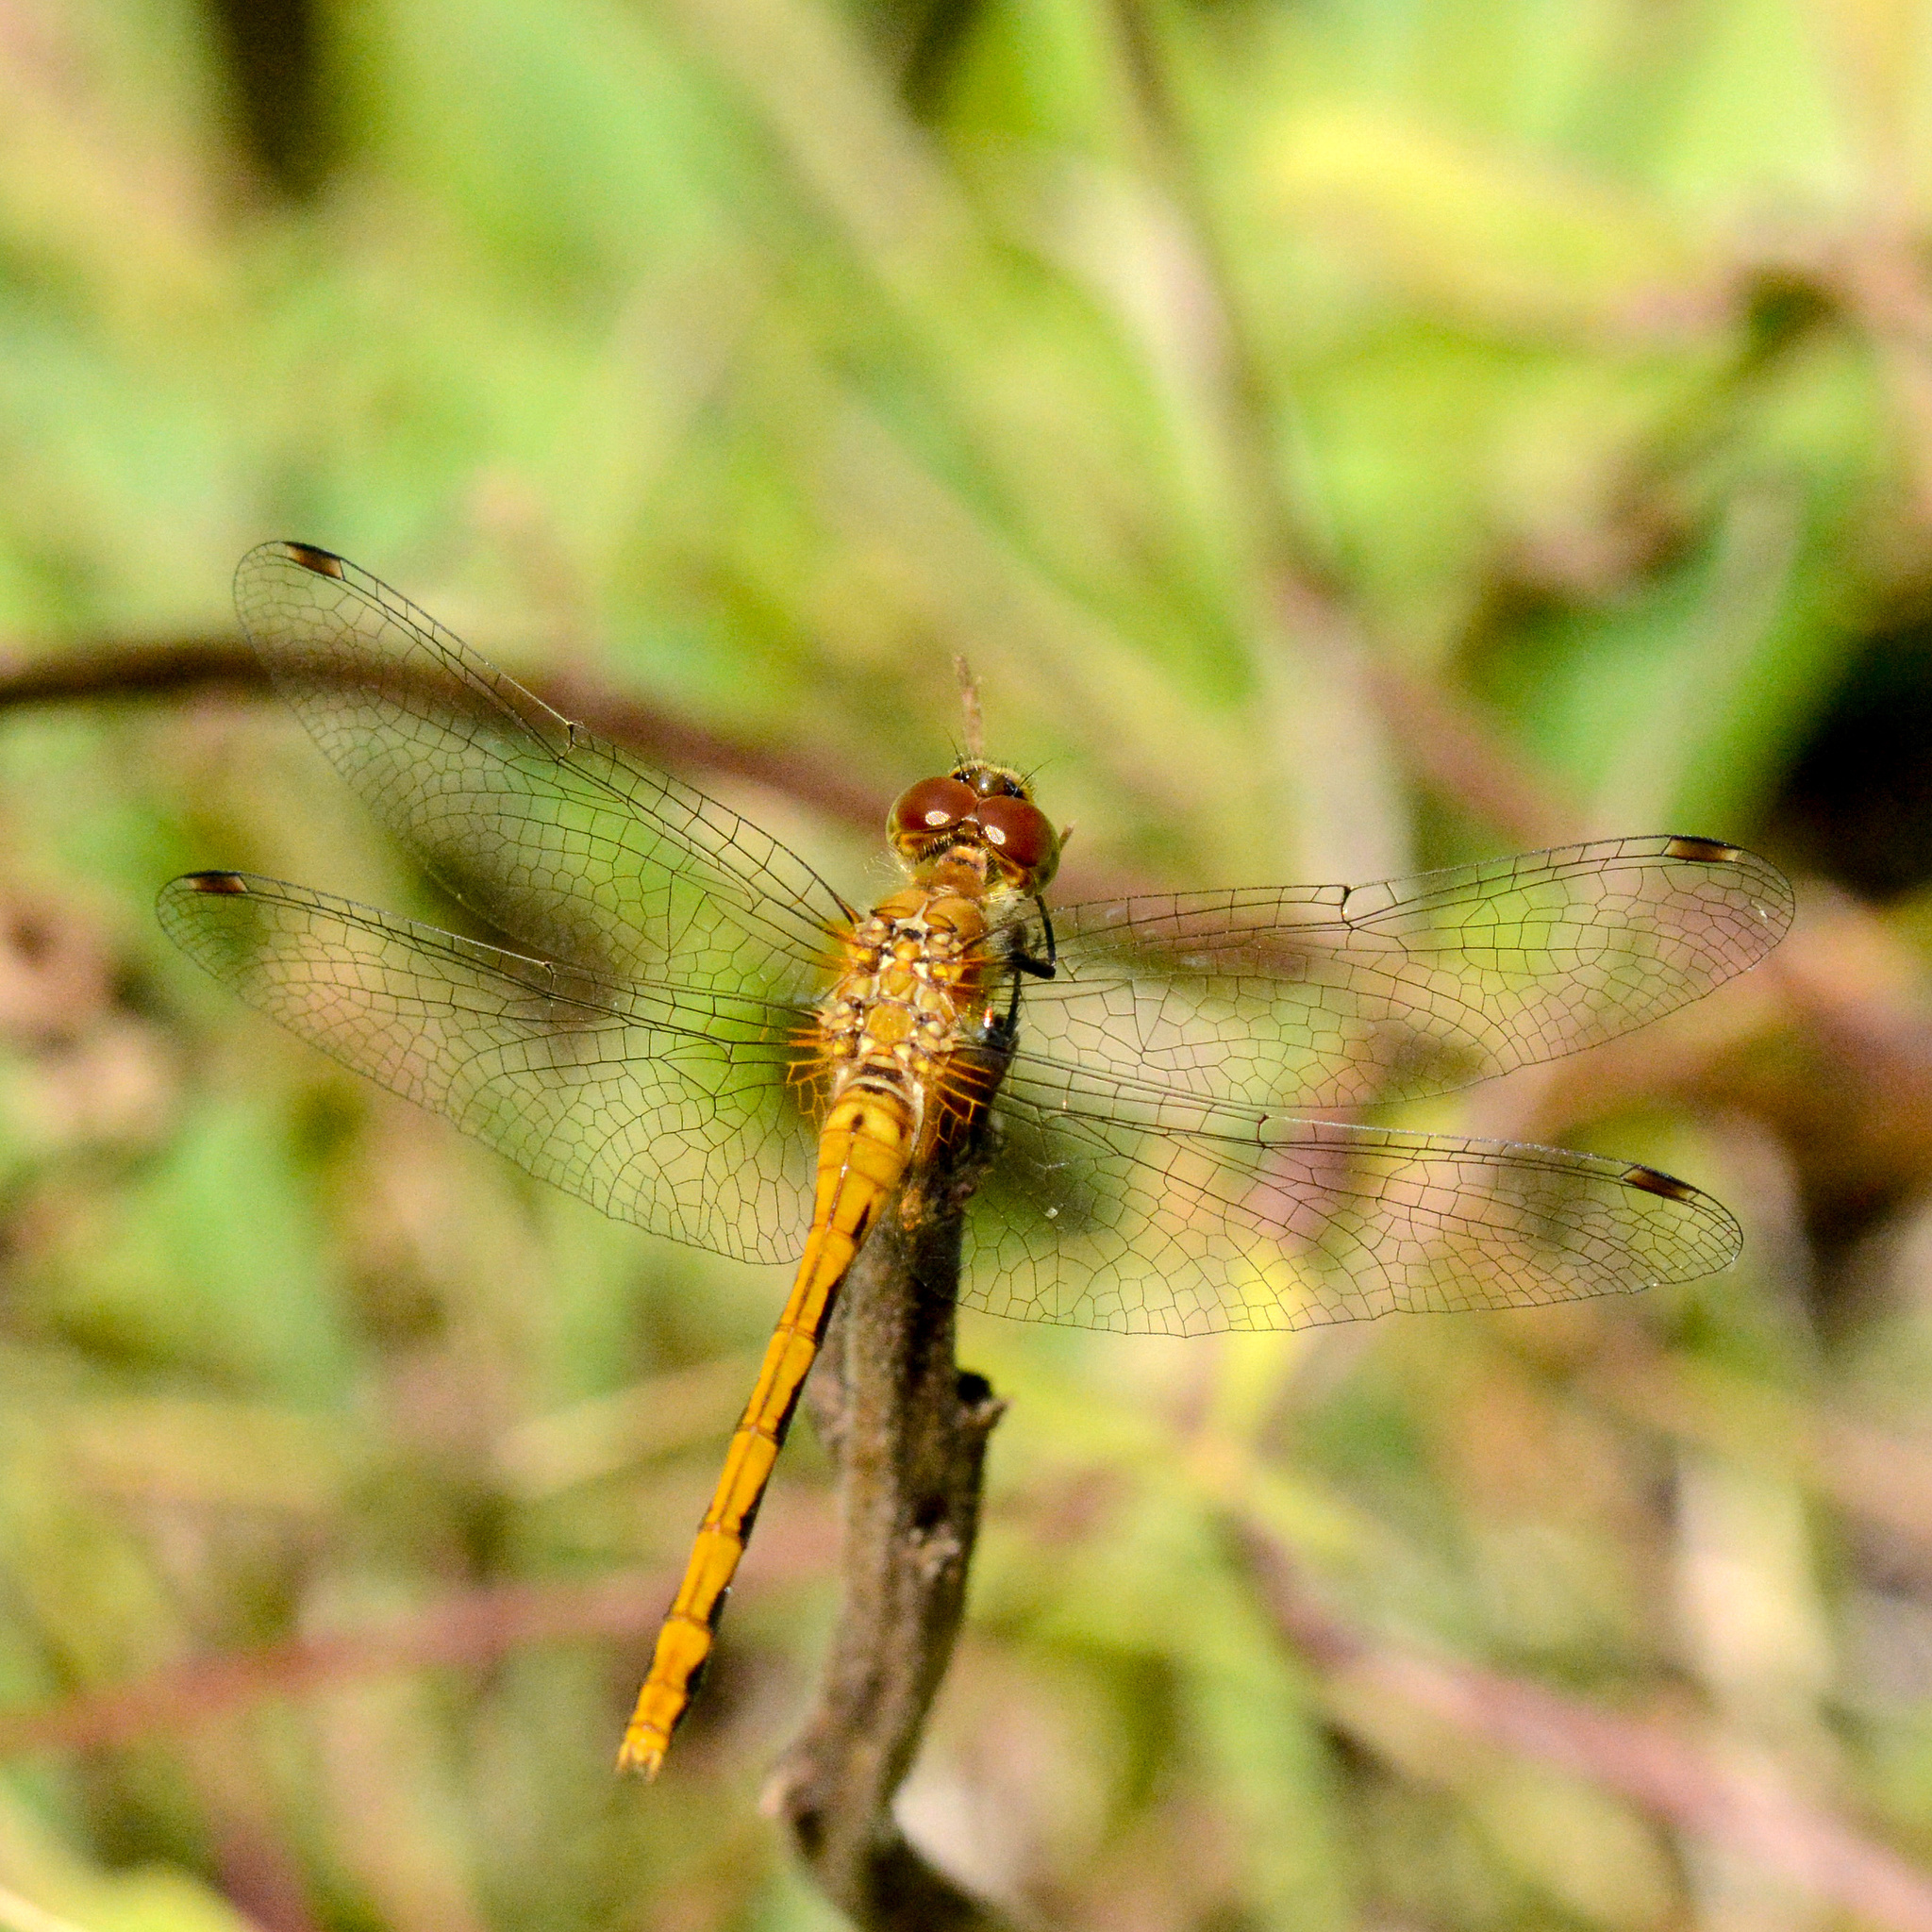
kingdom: Animalia
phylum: Arthropoda
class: Insecta
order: Odonata
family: Libellulidae
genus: Sympetrum
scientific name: Sympetrum obtrusum
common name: White-faced meadowhawk
